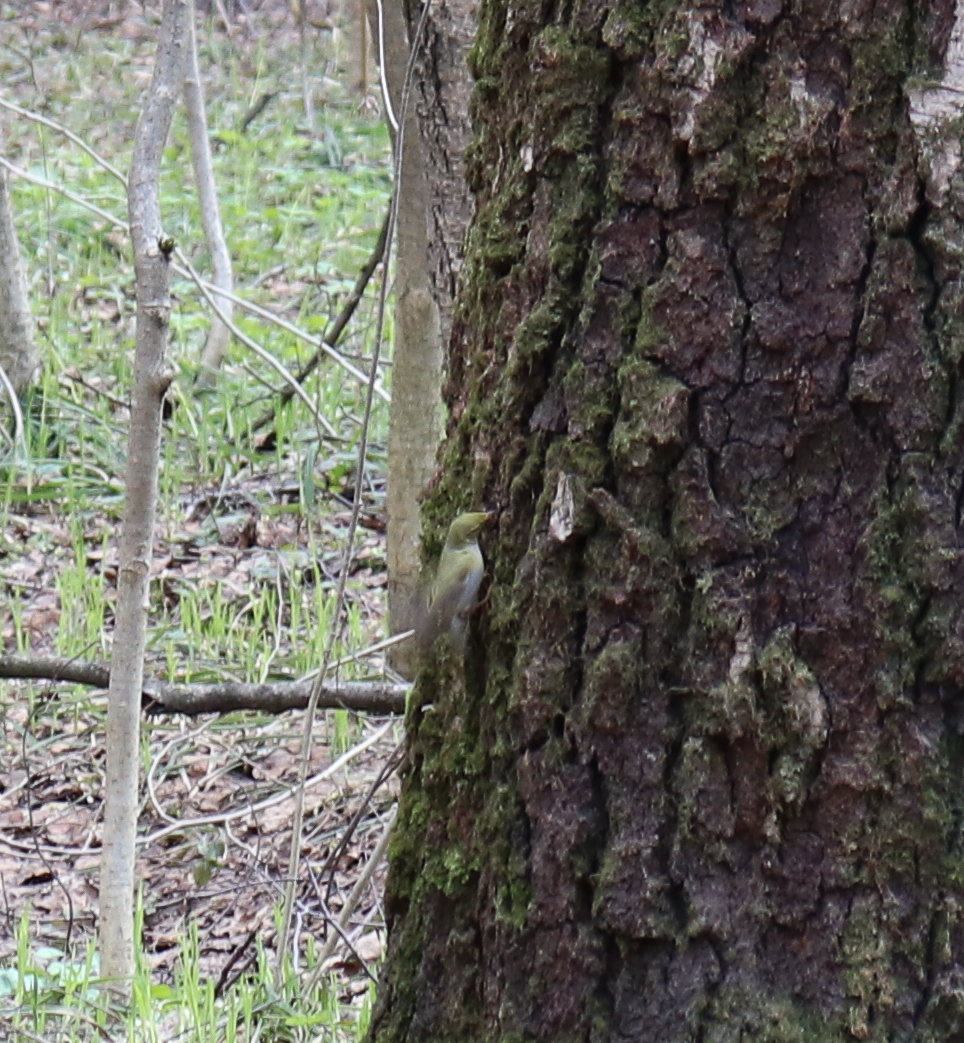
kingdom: Animalia
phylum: Chordata
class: Aves
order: Passeriformes
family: Phylloscopidae
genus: Phylloscopus
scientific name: Phylloscopus sibillatrix
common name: Wood warbler
